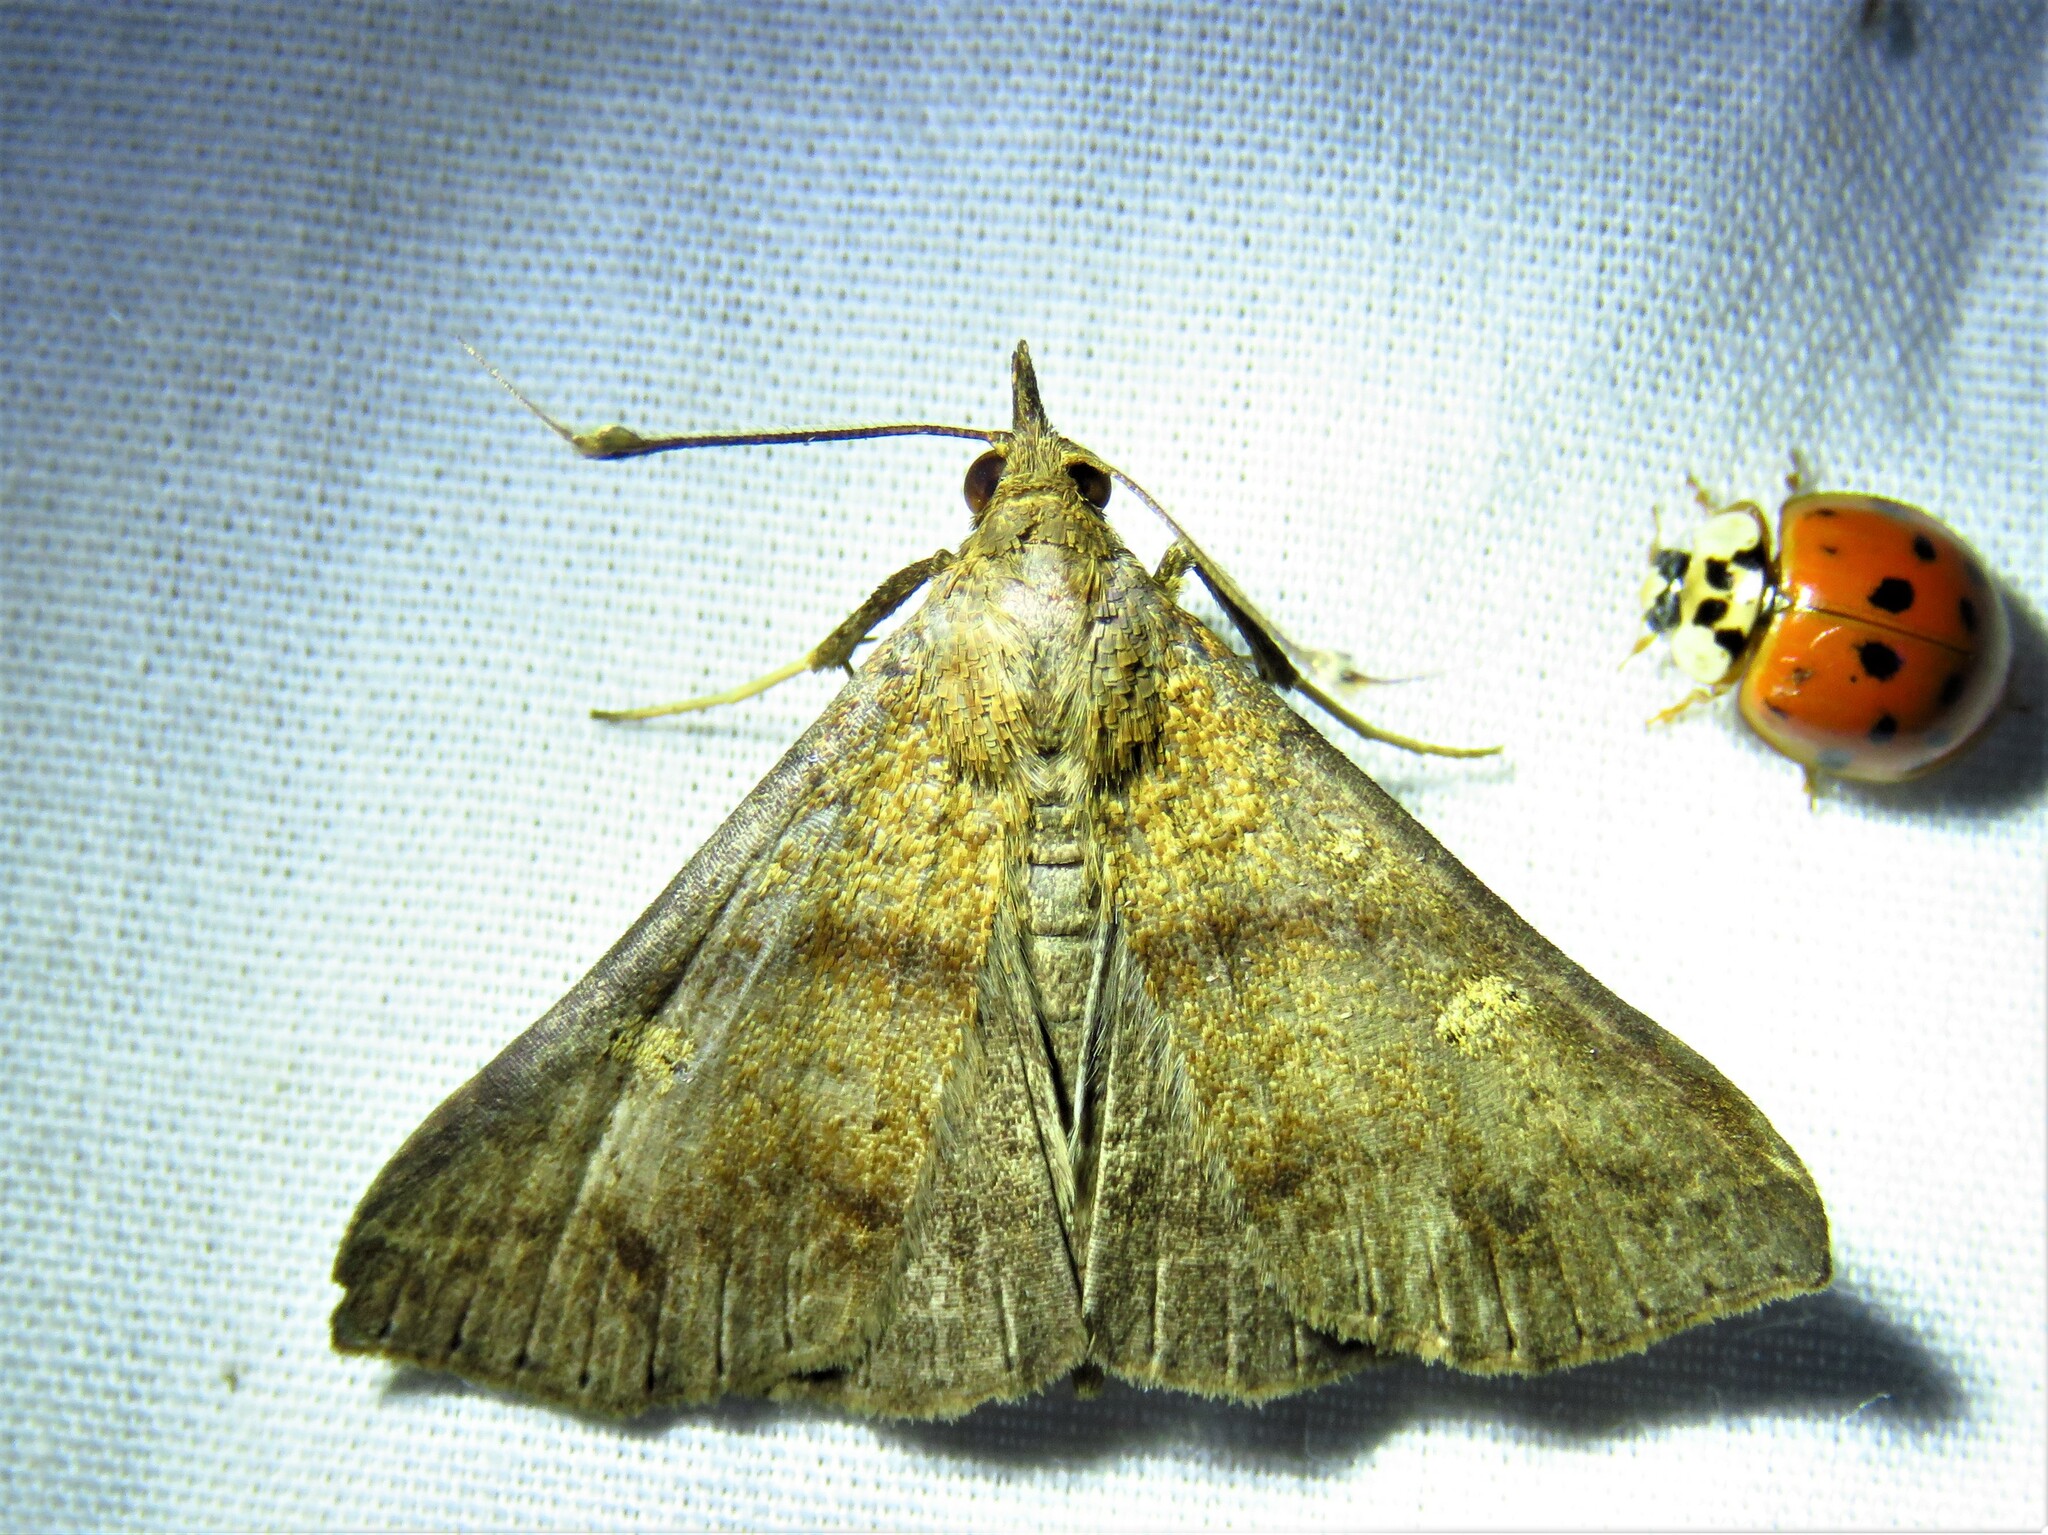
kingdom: Animalia
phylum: Arthropoda
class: Insecta
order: Lepidoptera
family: Erebidae
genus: Renia
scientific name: Renia discoloralis
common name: Discolored renia moth
